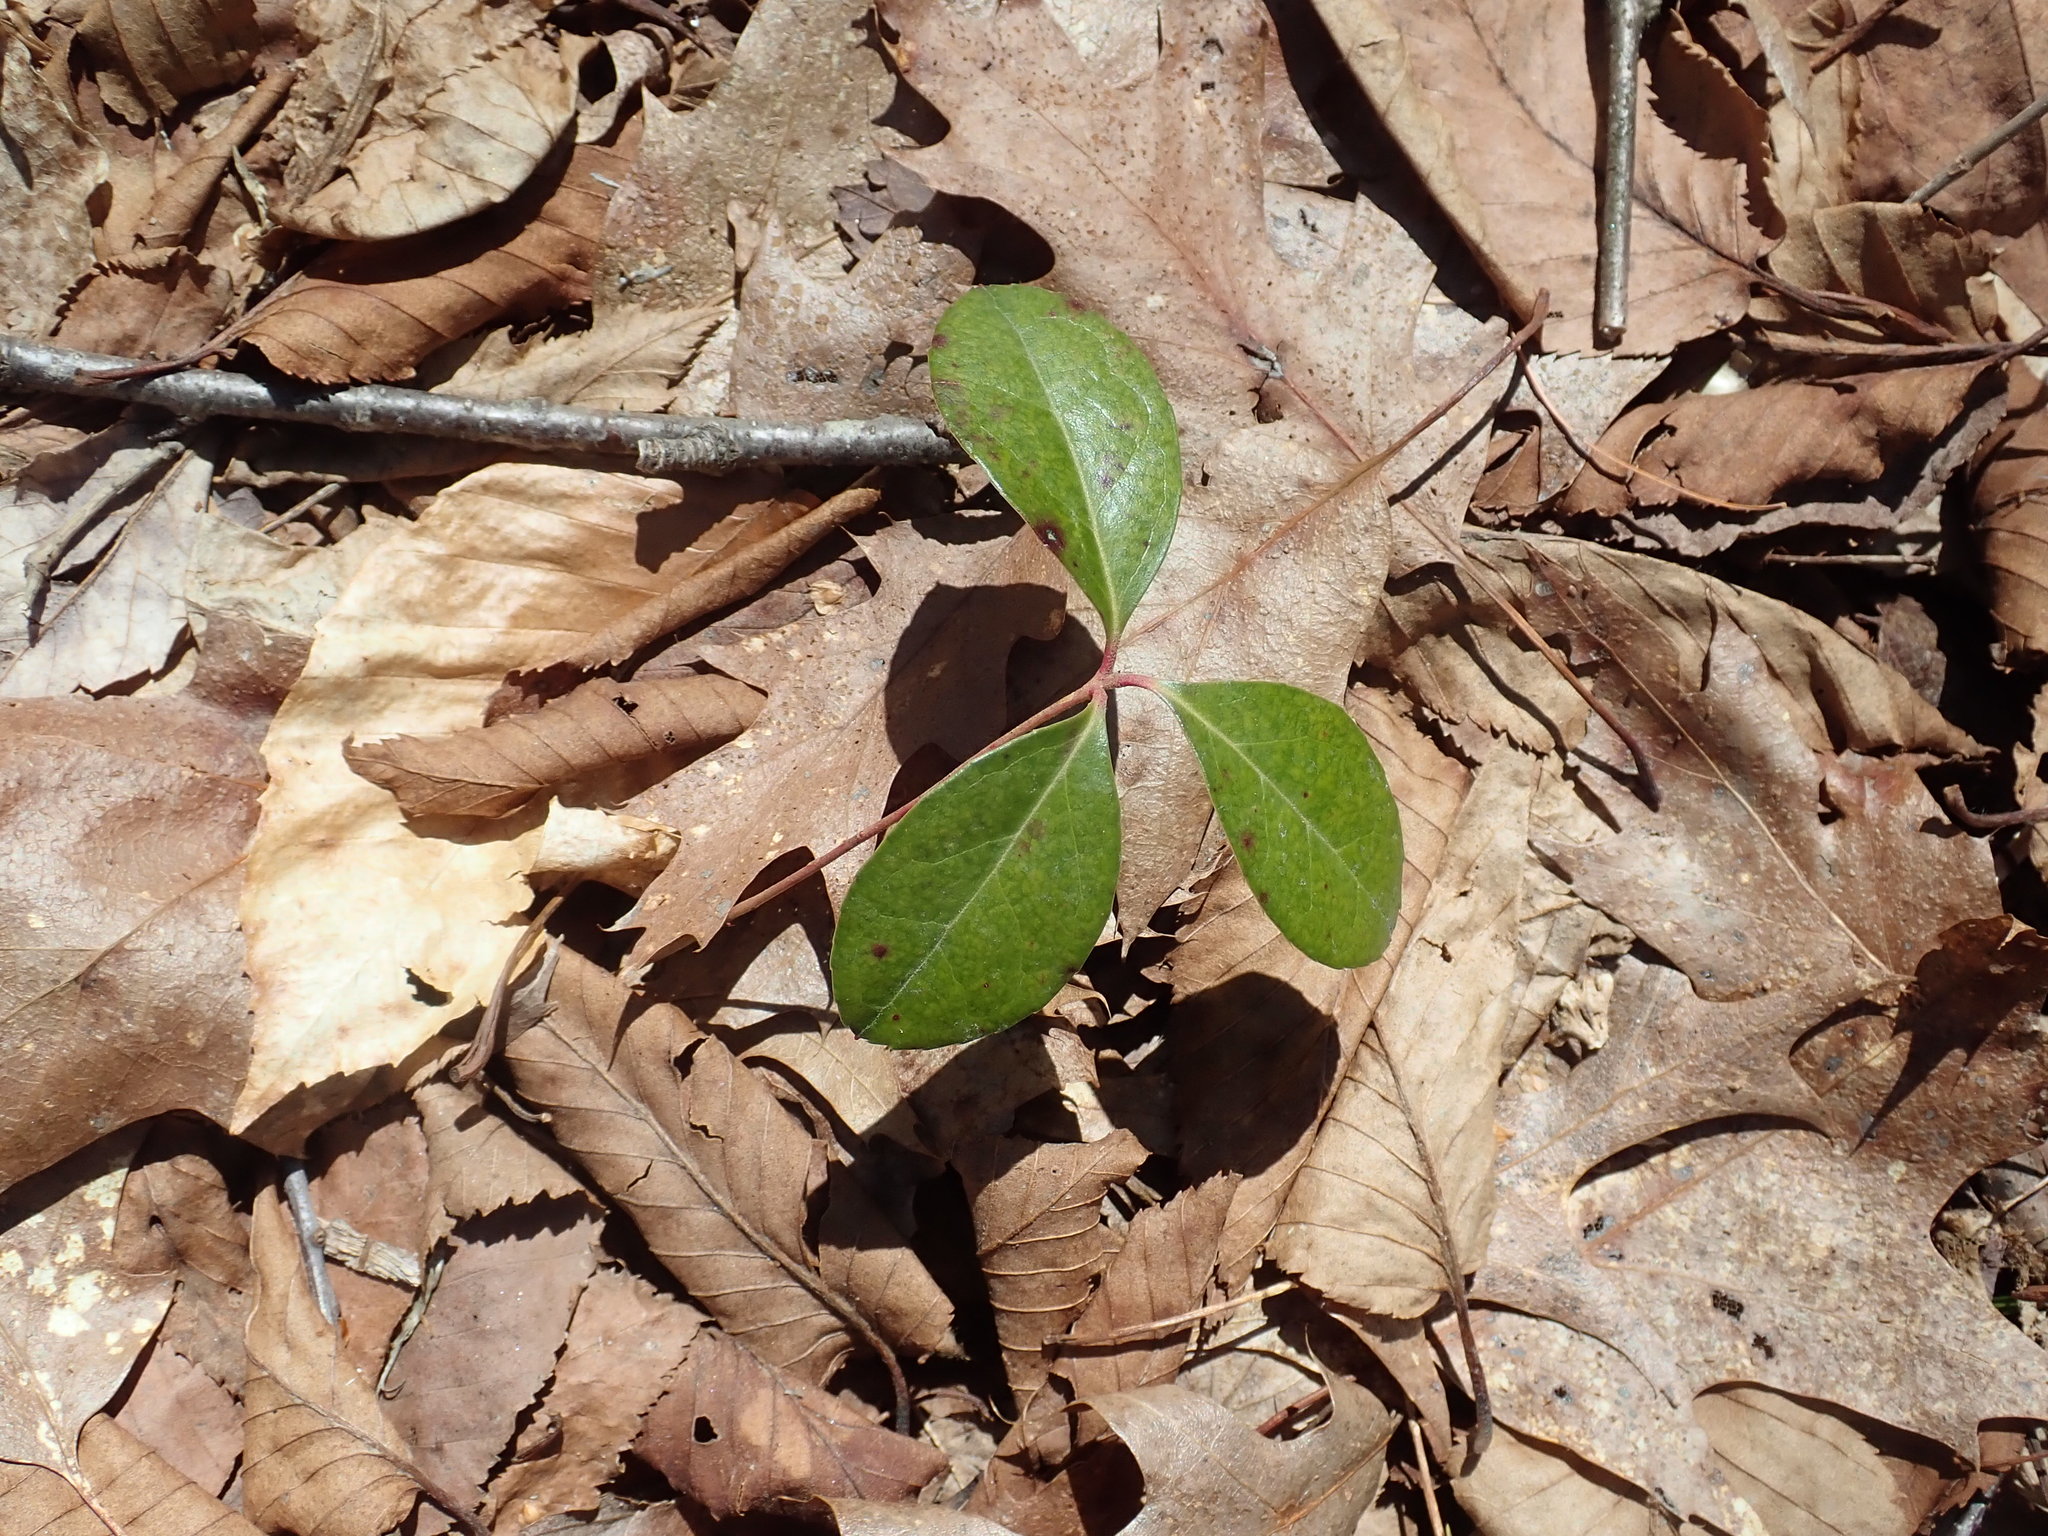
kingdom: Plantae
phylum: Tracheophyta
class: Magnoliopsida
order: Ericales
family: Ericaceae
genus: Gaultheria
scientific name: Gaultheria procumbens
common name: Checkerberry
